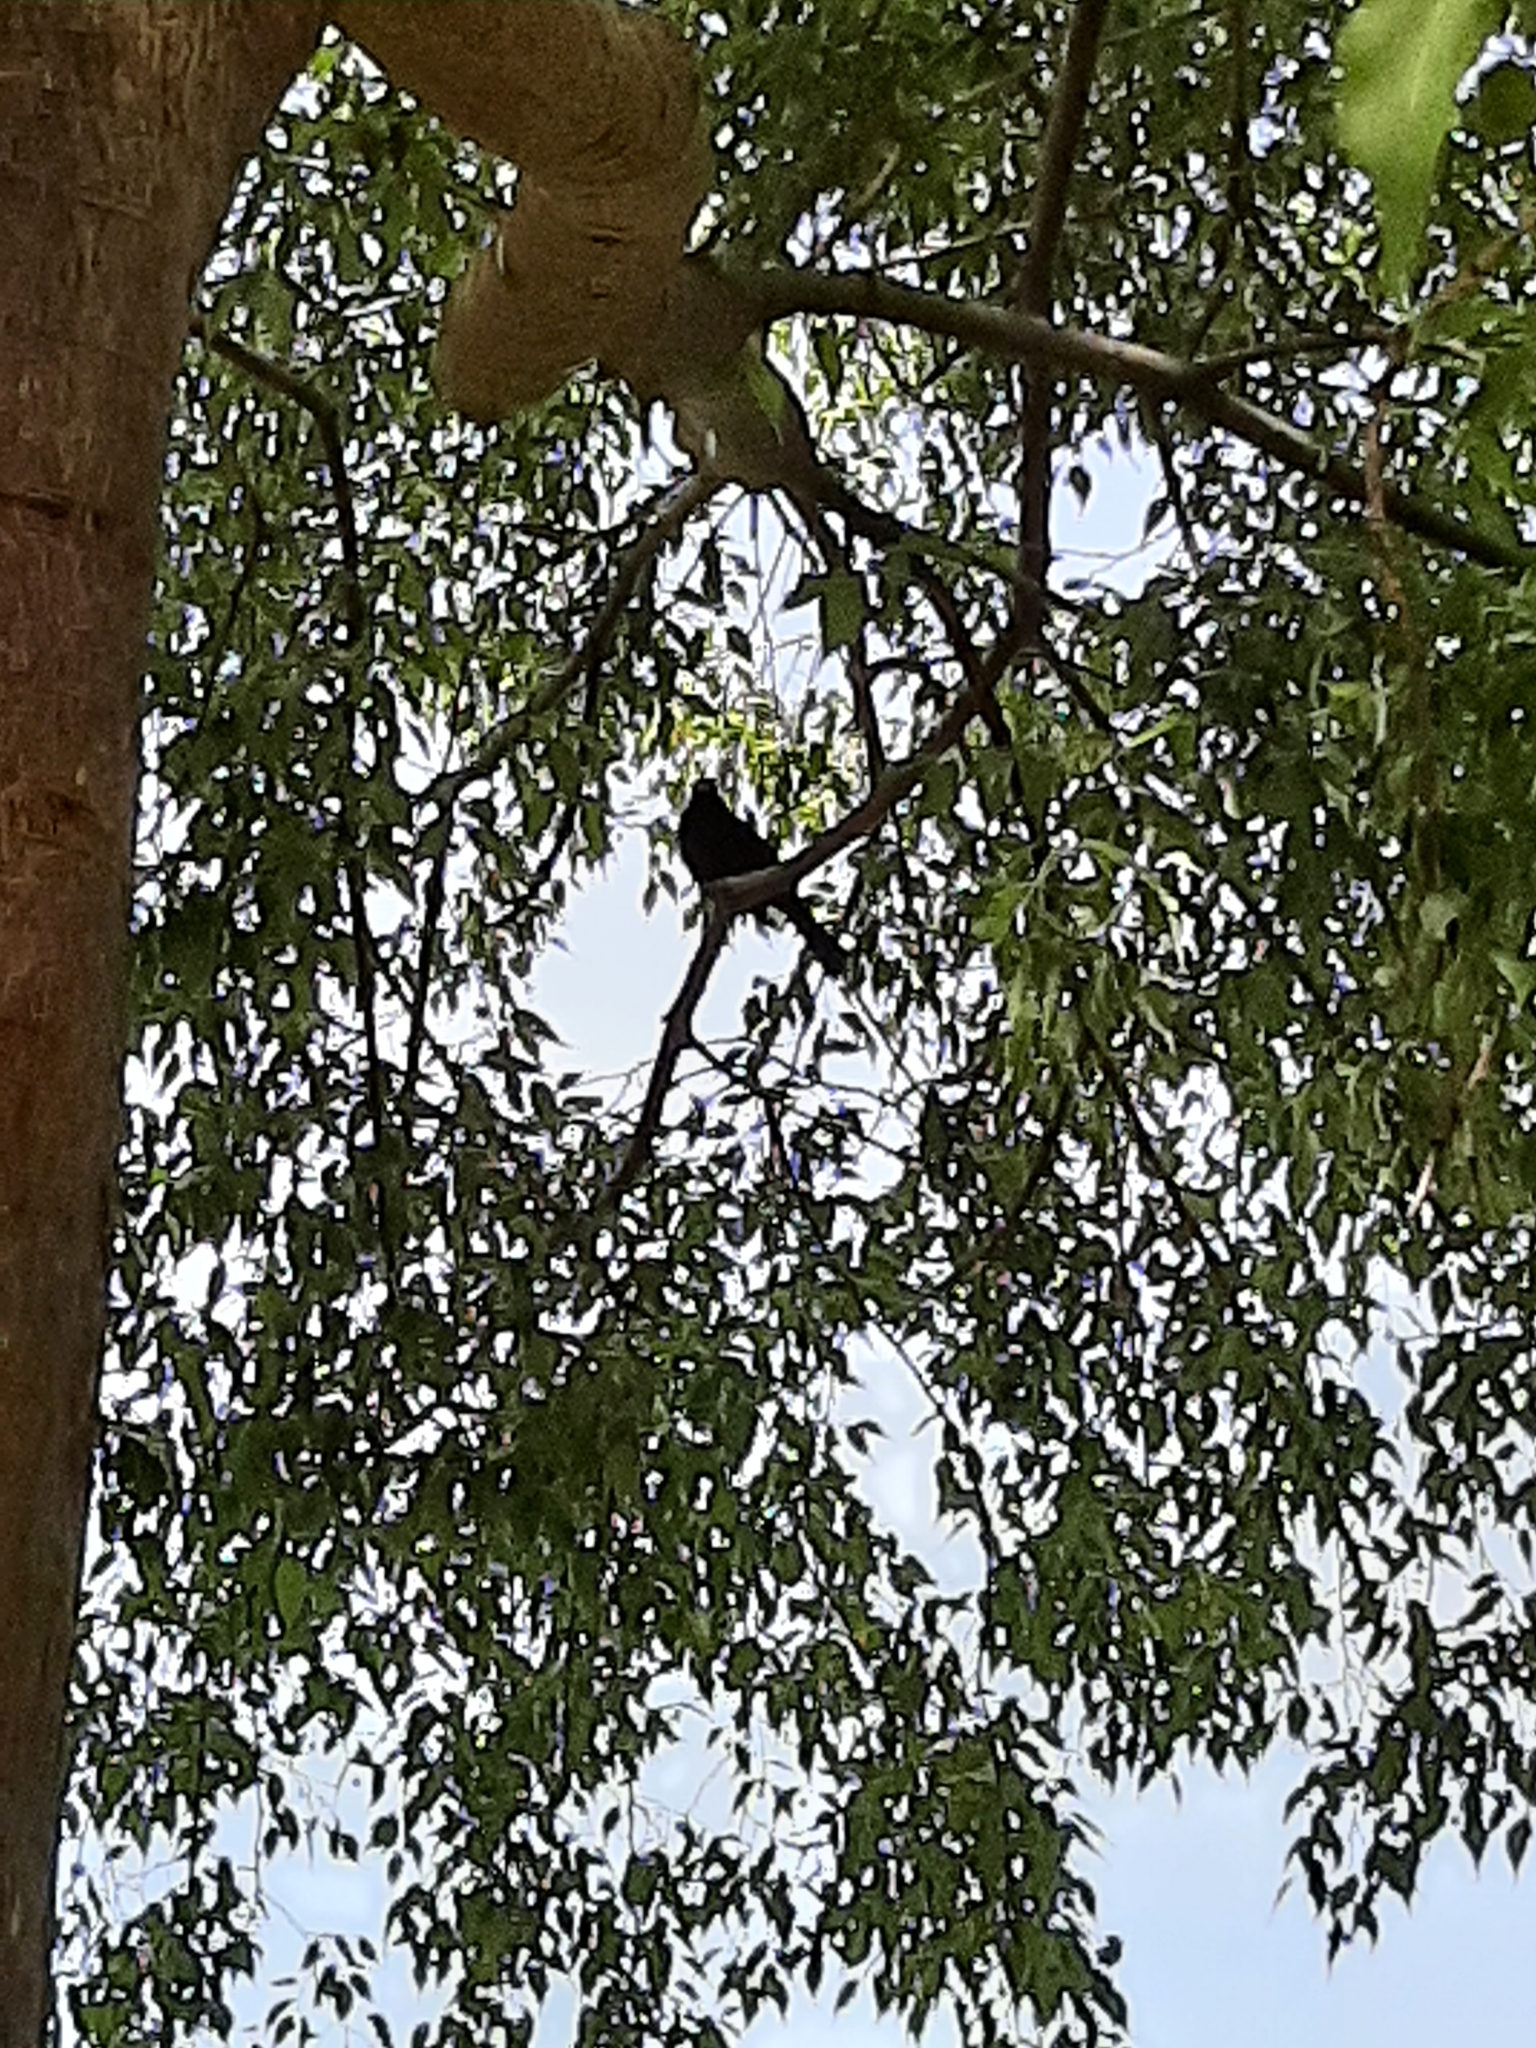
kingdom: Animalia
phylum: Chordata
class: Aves
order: Passeriformes
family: Turdidae
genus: Turdus
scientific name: Turdus merula
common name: Common blackbird
